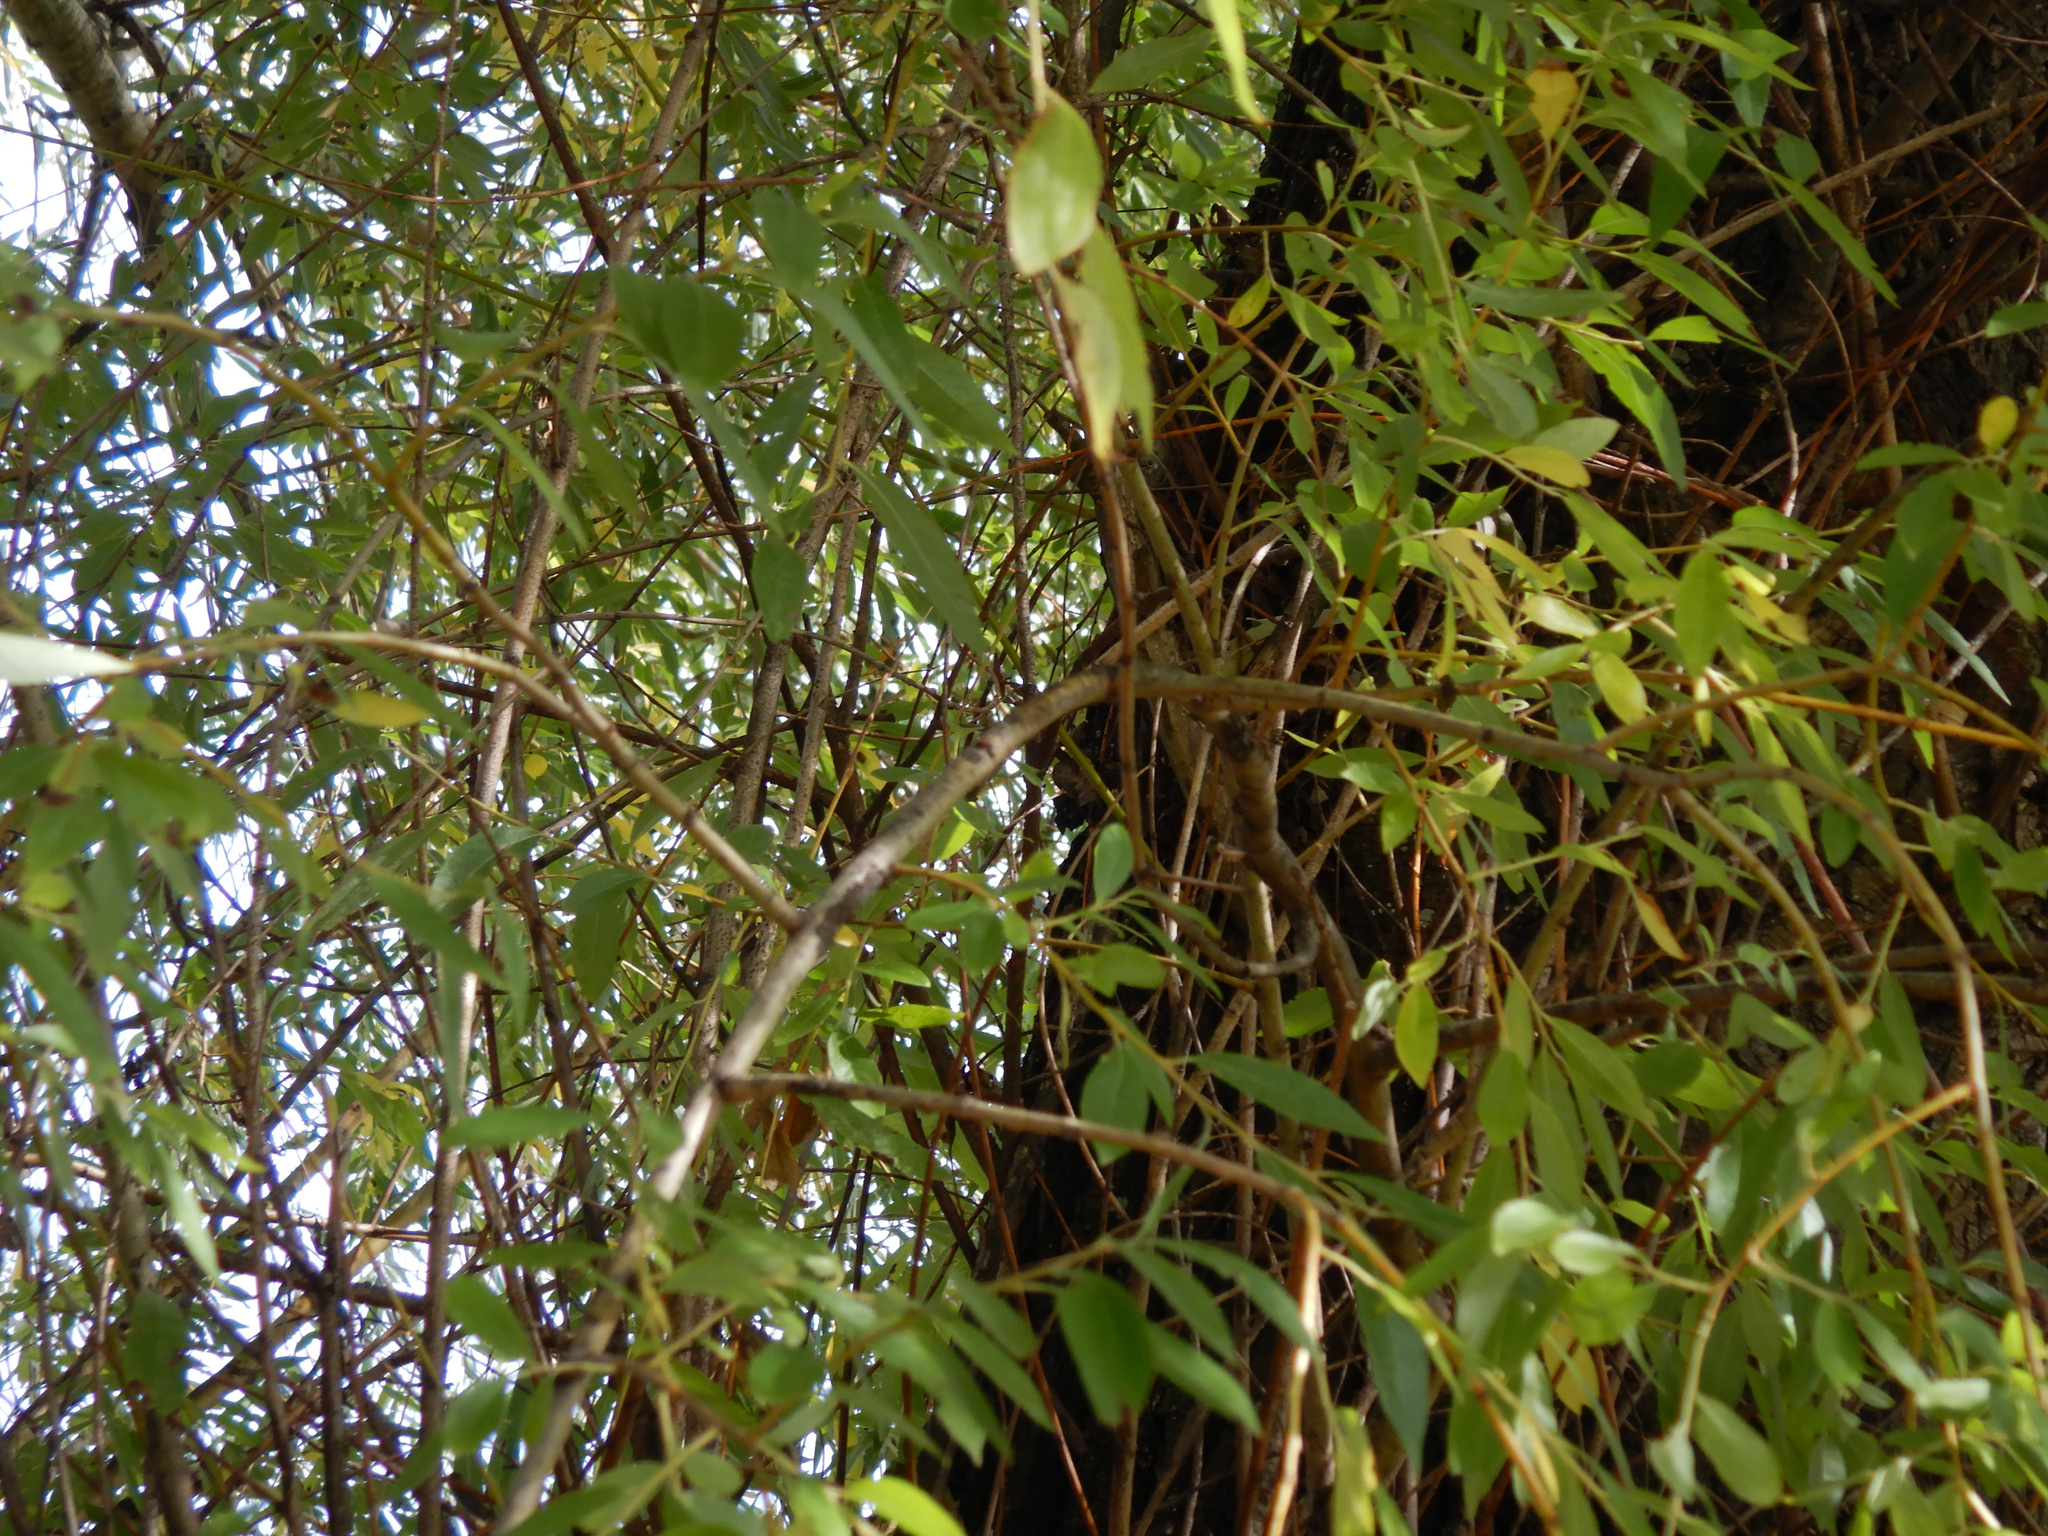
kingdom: Animalia
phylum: Arthropoda
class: Insecta
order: Hemiptera
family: Aphididae
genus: Tuberolachnus
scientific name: Tuberolachnus salignus
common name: Giant willow aphid
